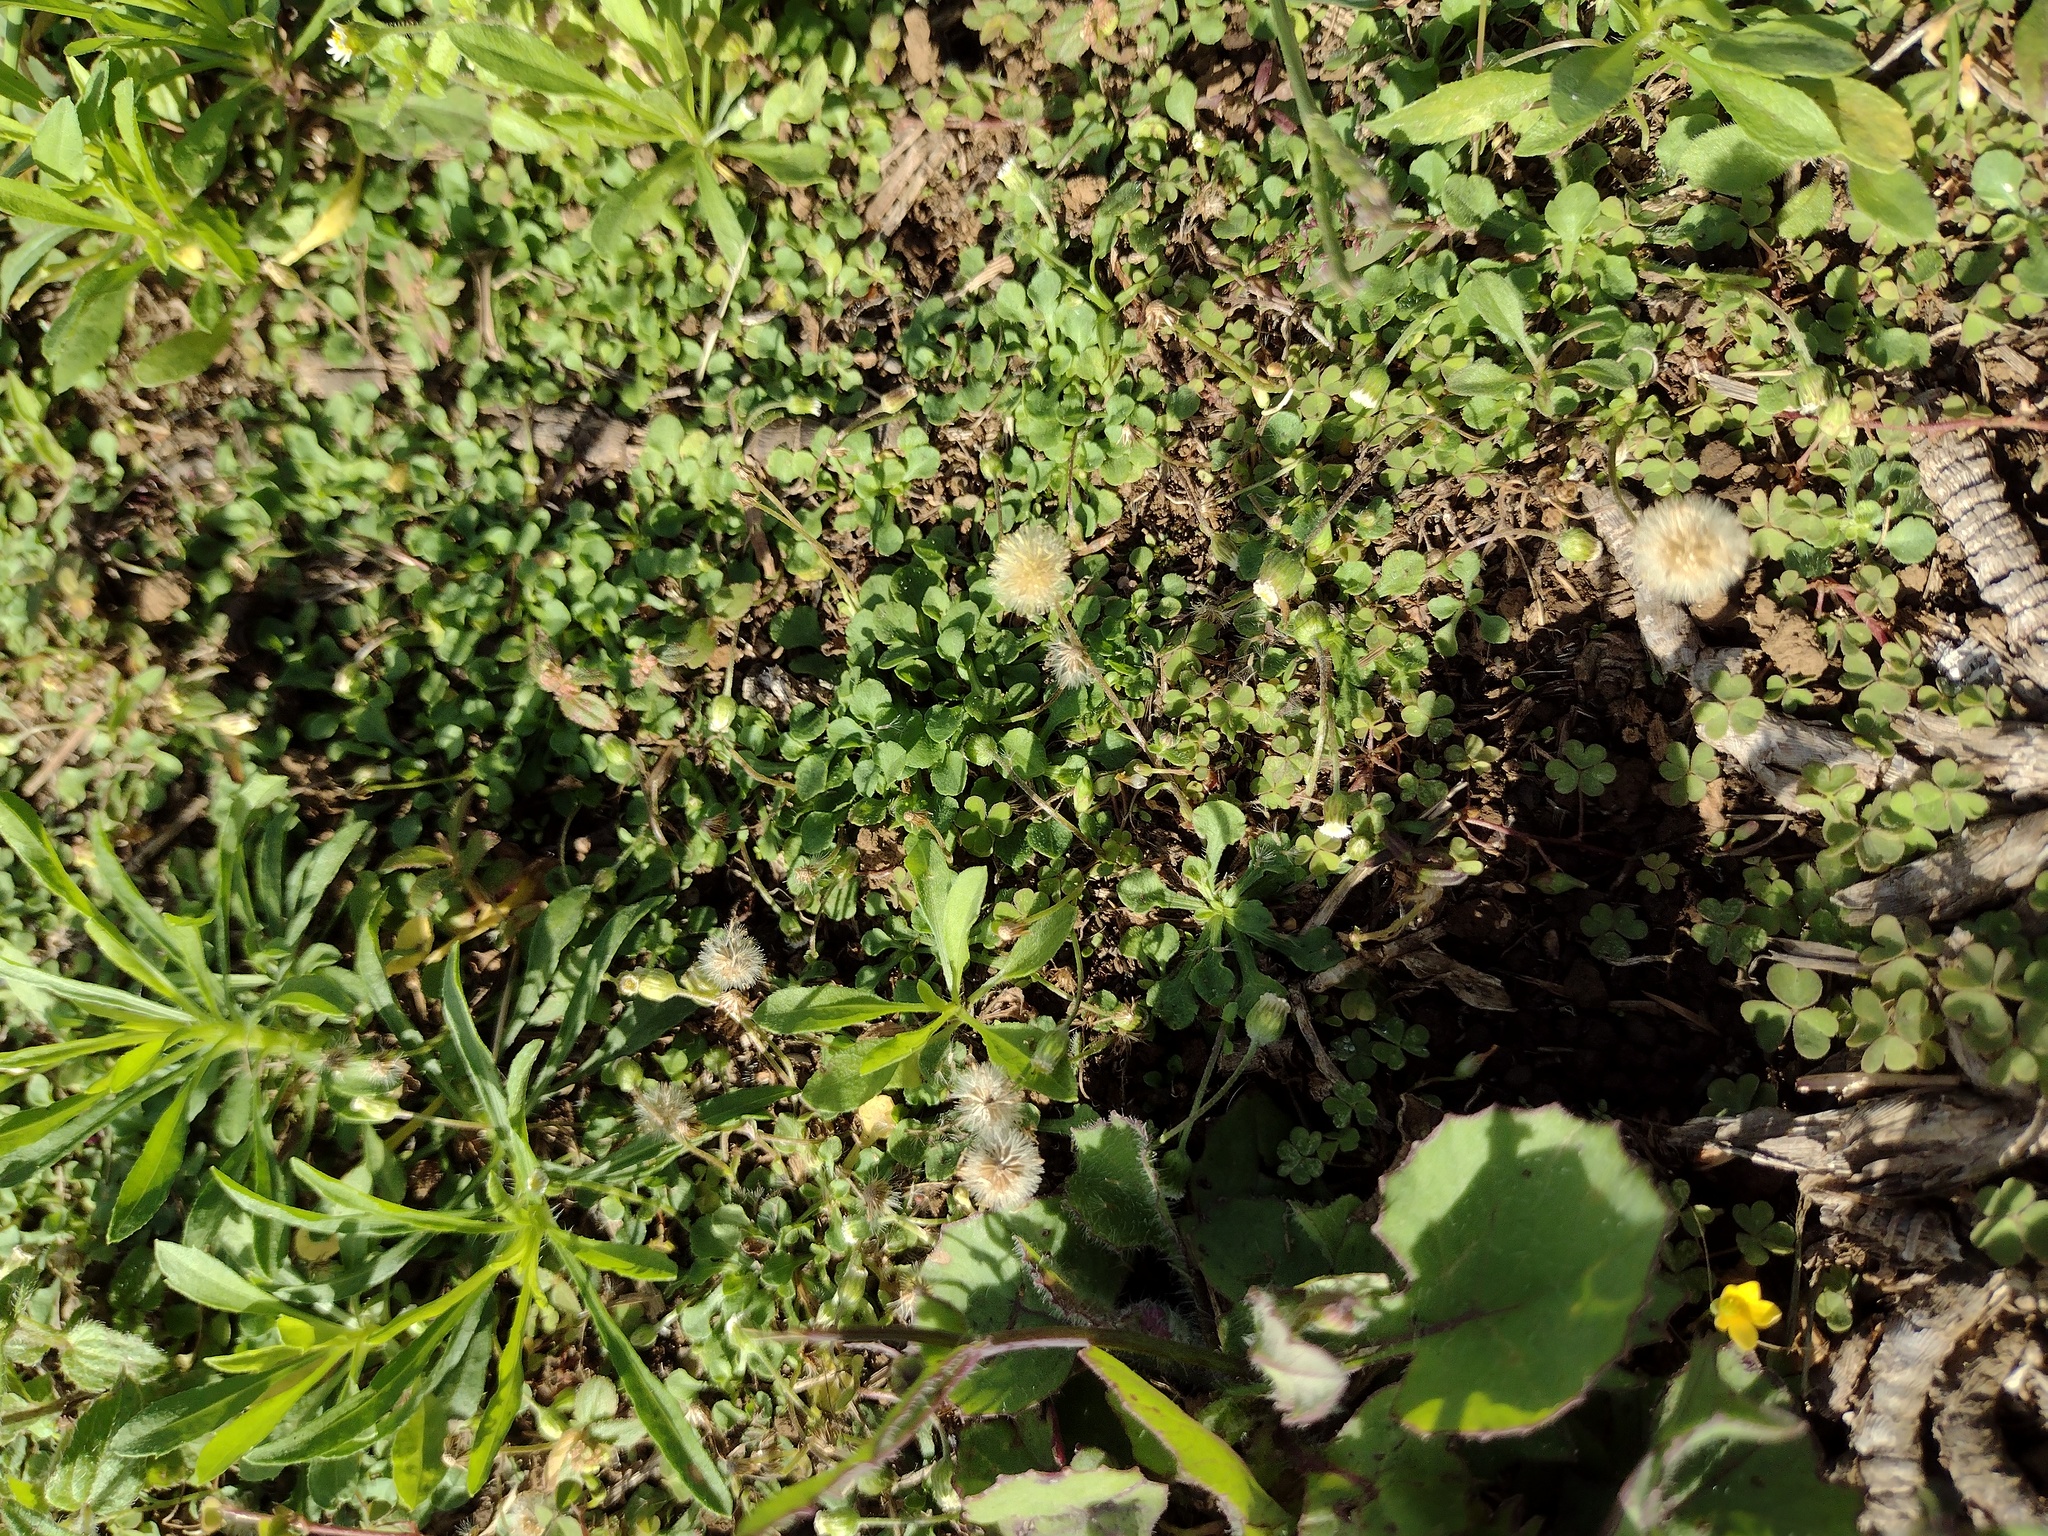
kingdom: Plantae
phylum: Tracheophyta
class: Magnoliopsida
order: Asterales
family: Asteraceae
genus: Erigeron
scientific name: Erigeron bellioides
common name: Bellorita
